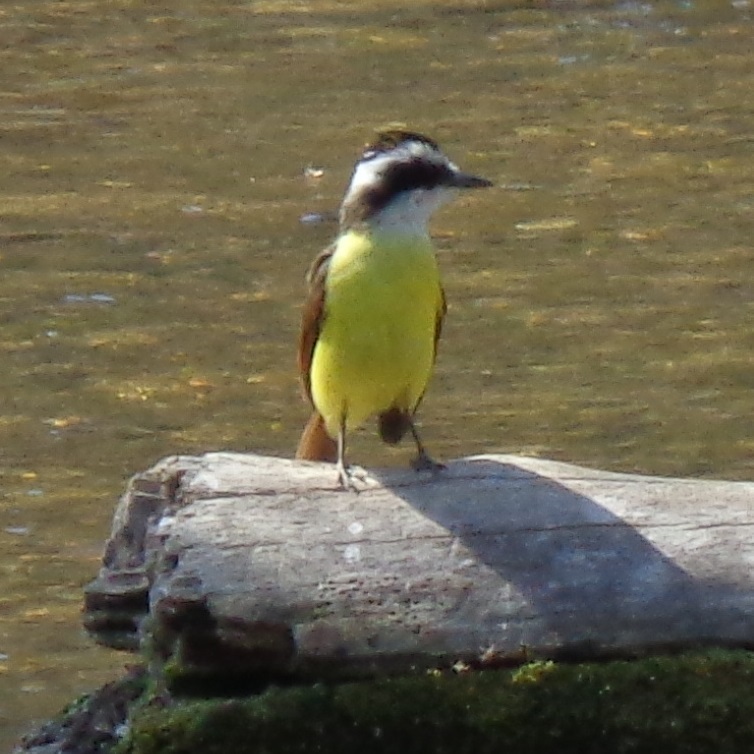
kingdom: Animalia
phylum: Chordata
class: Aves
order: Passeriformes
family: Tyrannidae
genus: Pitangus
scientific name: Pitangus sulphuratus
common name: Great kiskadee
